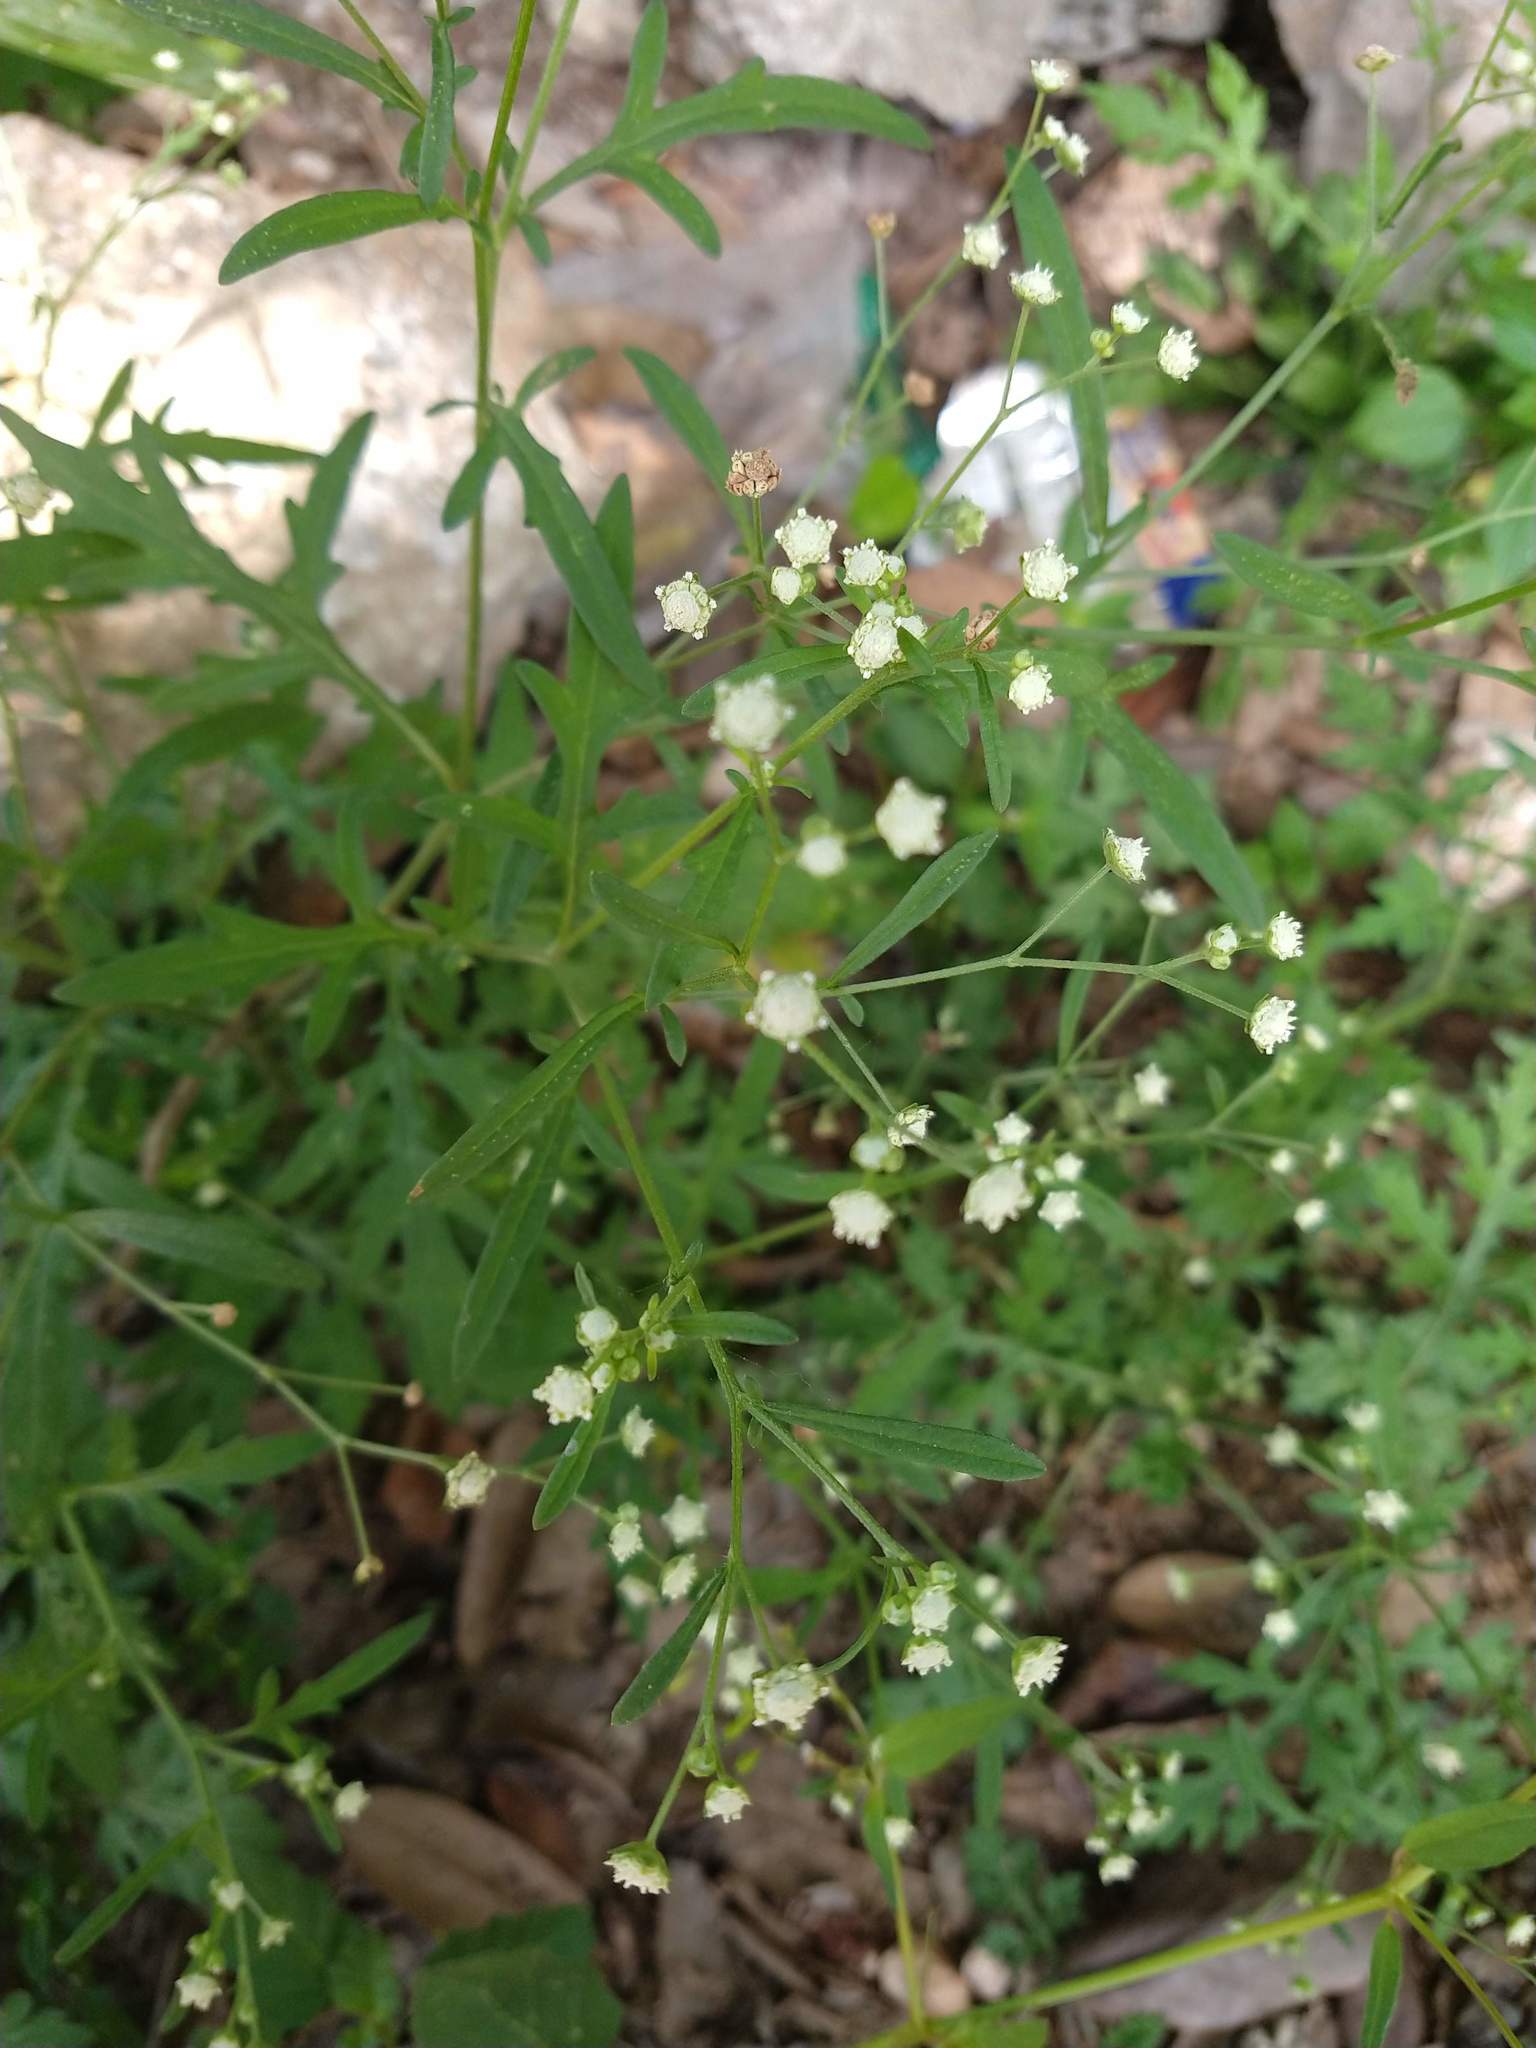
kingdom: Plantae
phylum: Tracheophyta
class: Magnoliopsida
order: Asterales
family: Asteraceae
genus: Parthenium
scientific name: Parthenium hysterophorus
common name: Santa maria feverfew
